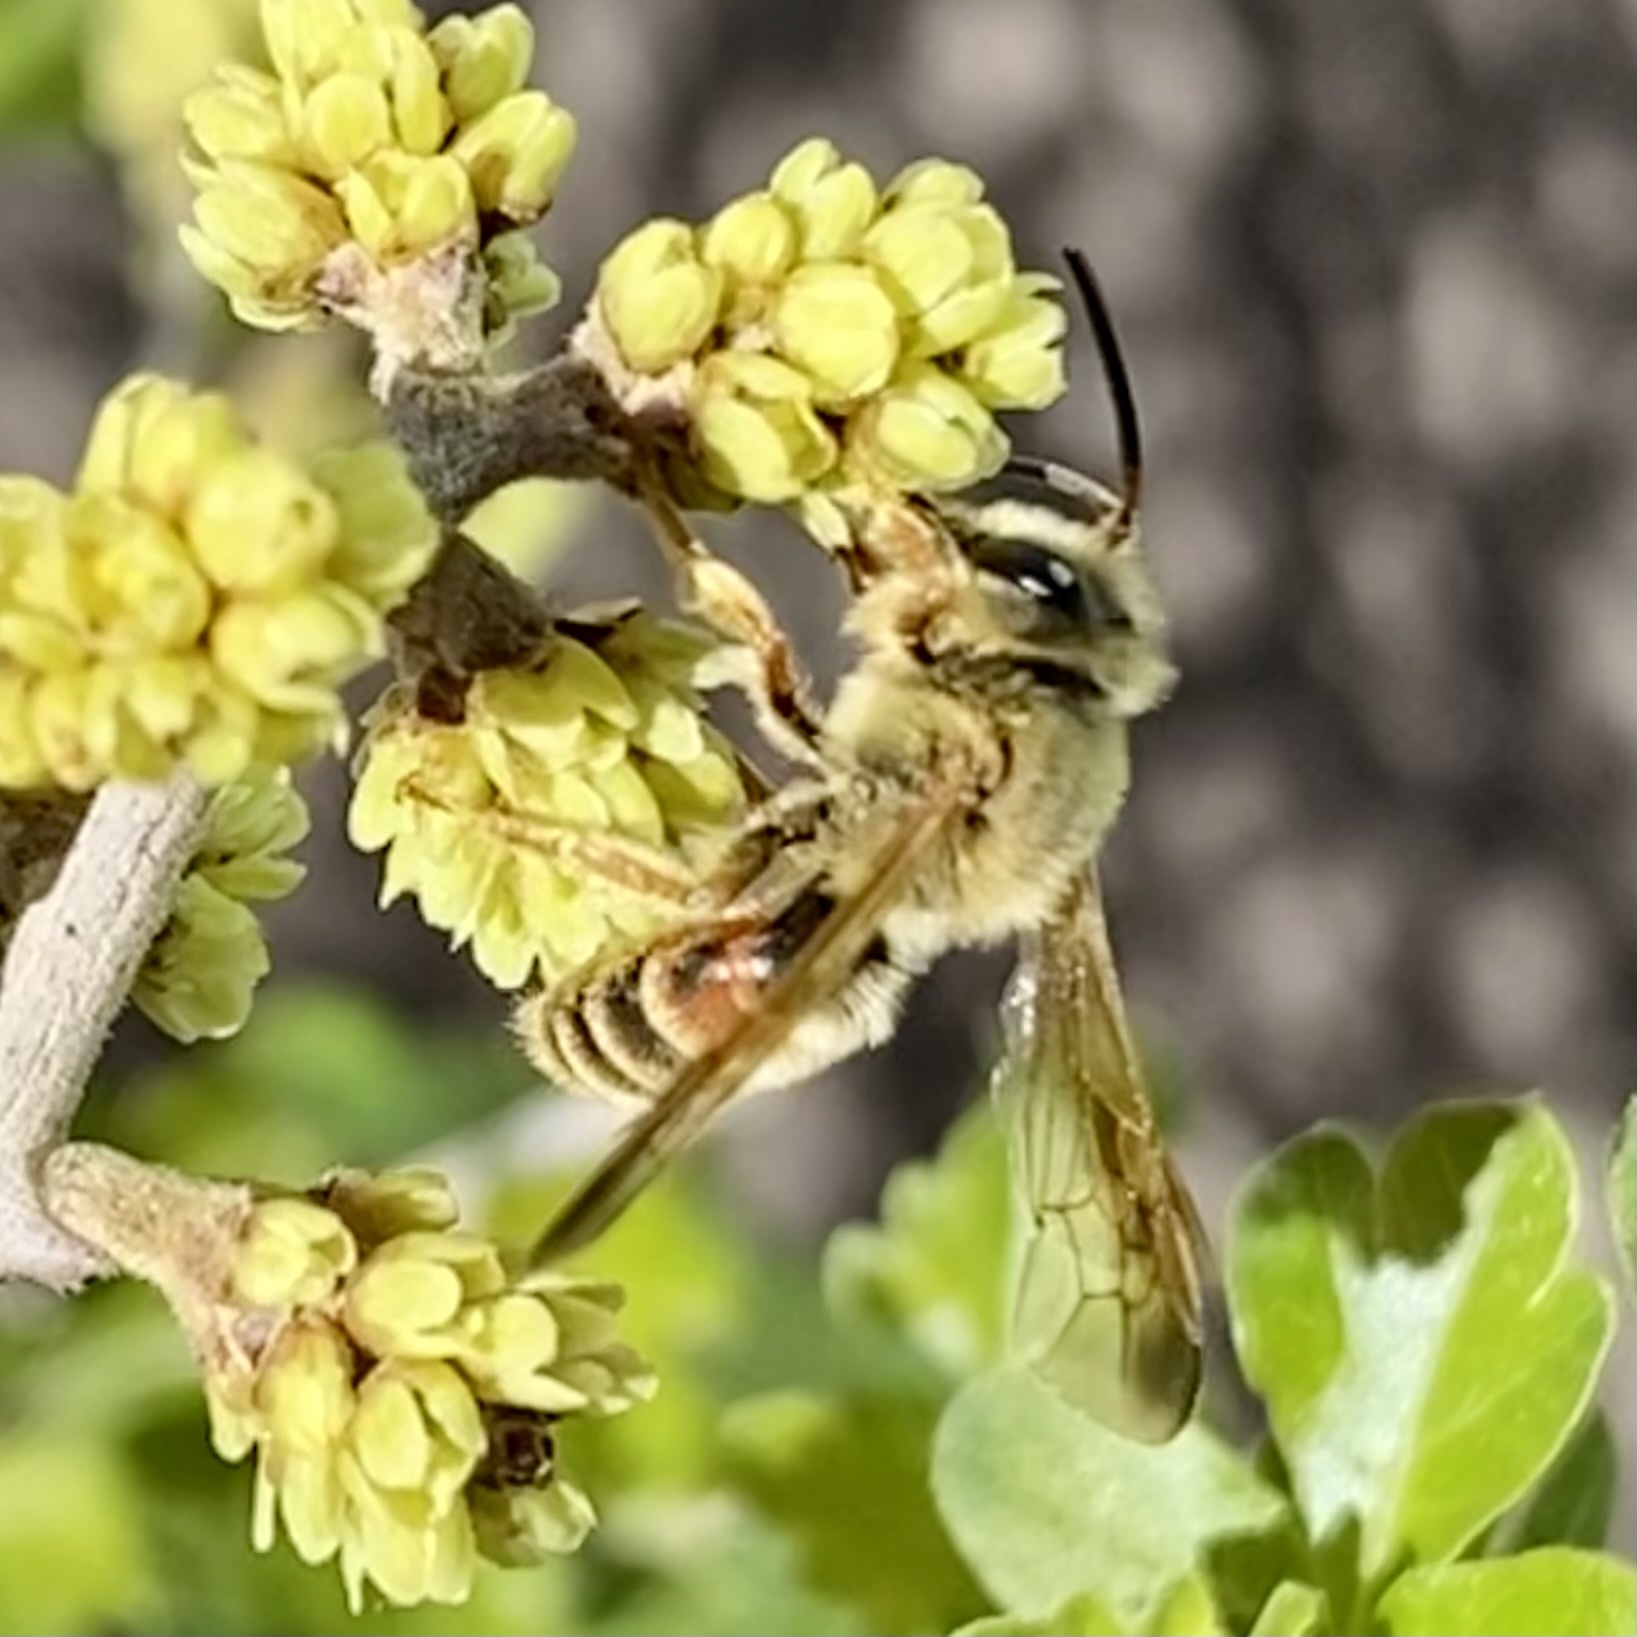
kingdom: Animalia
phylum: Arthropoda
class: Insecta
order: Hymenoptera
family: Andrenidae
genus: Andrena
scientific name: Andrena prunorum
